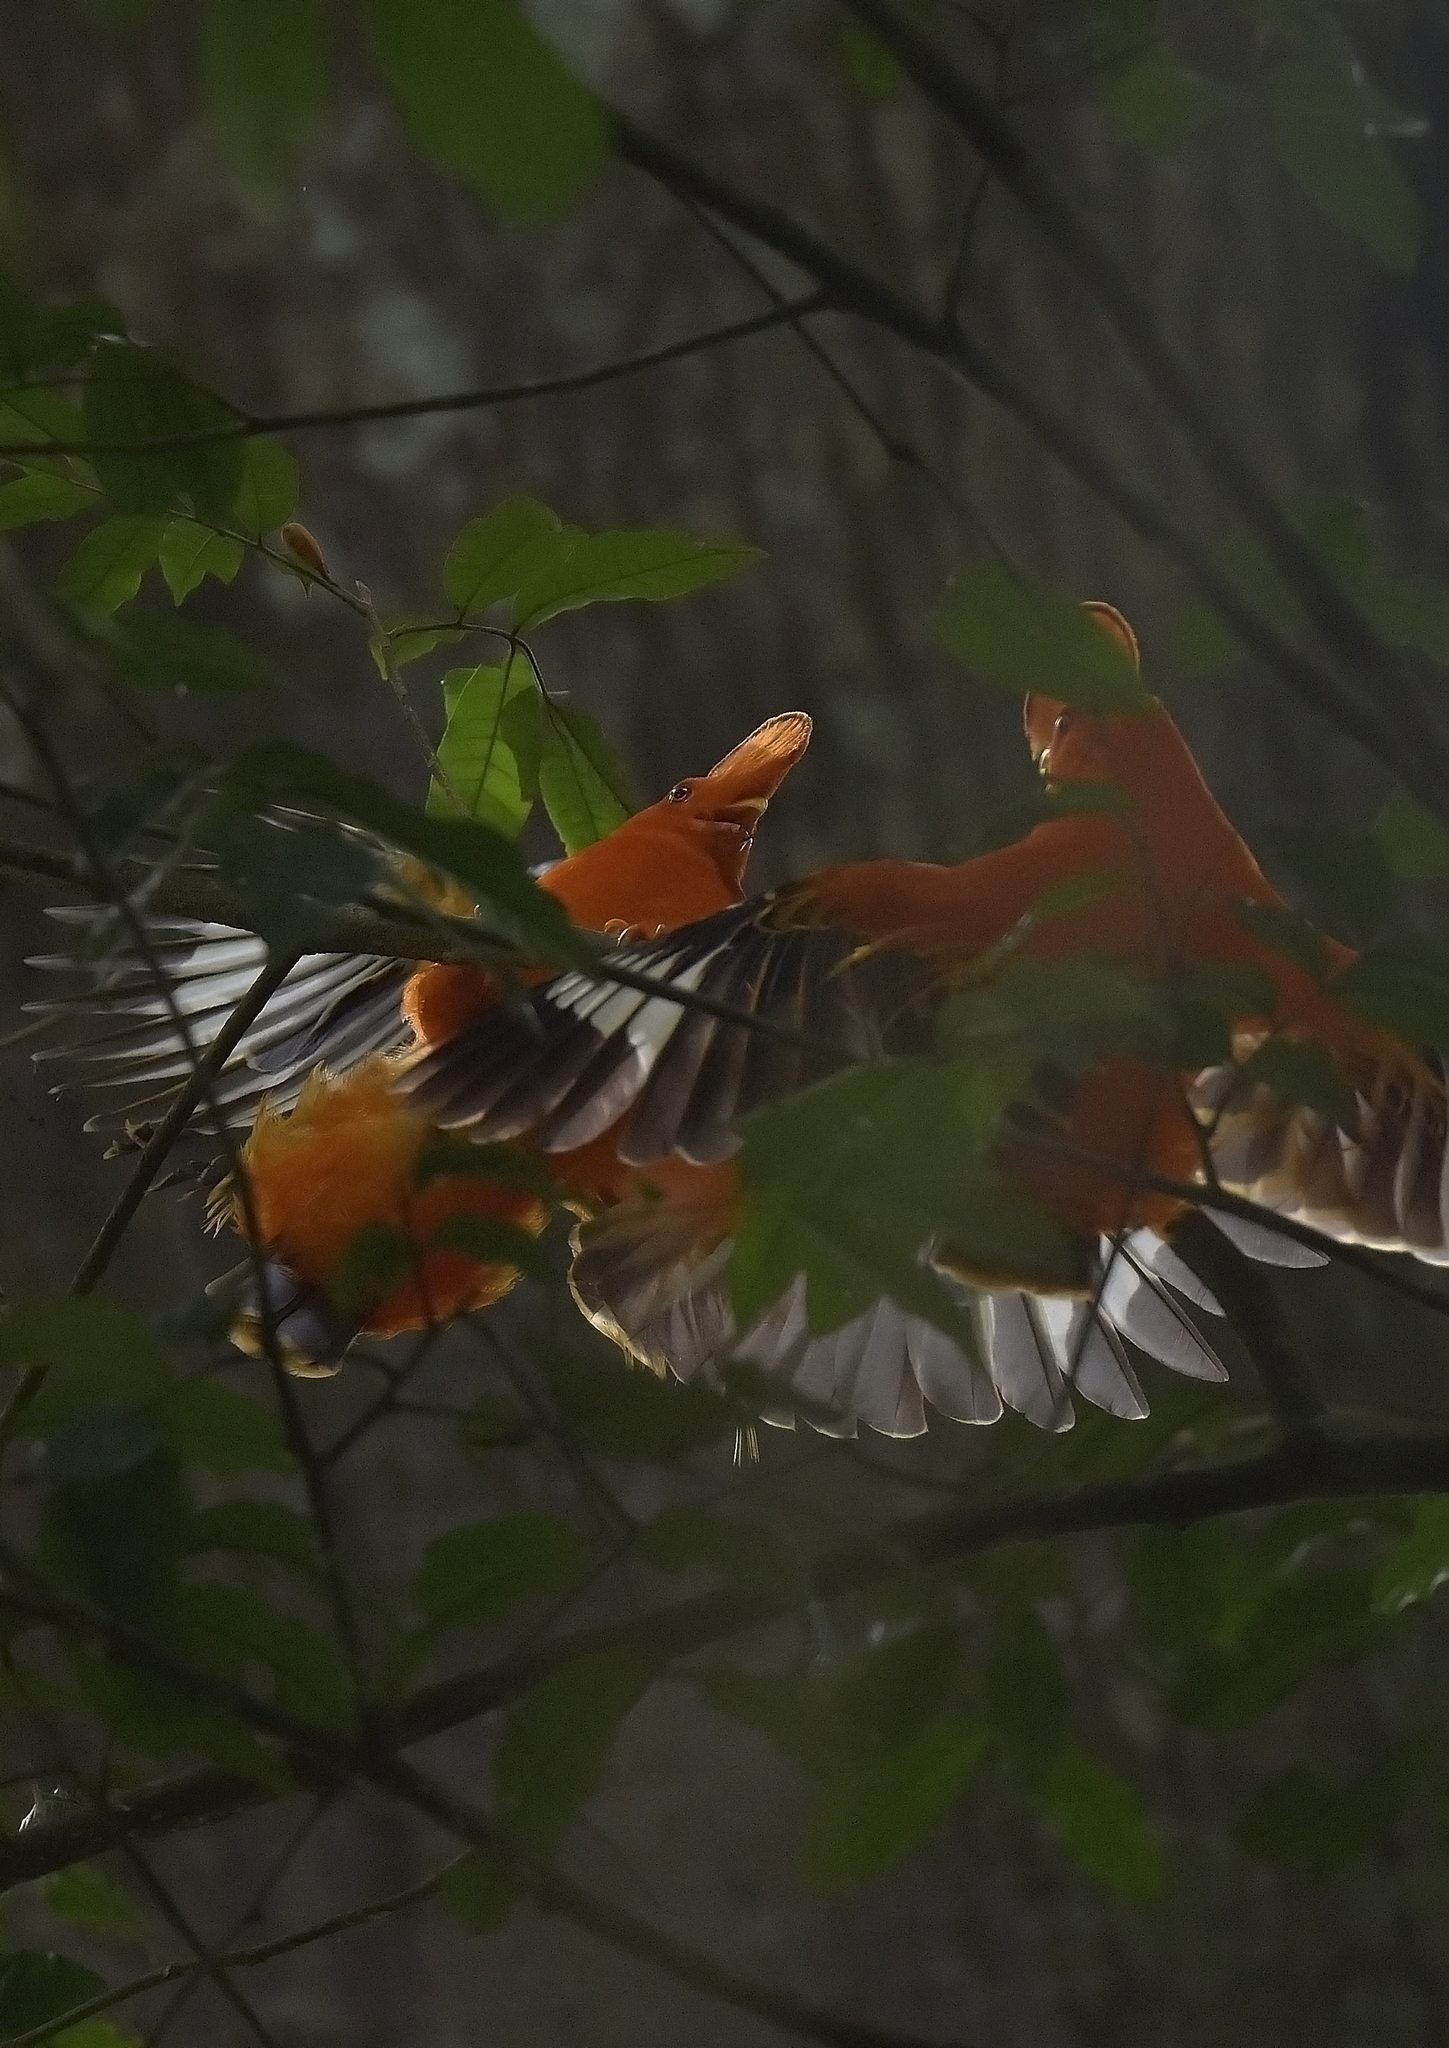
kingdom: Animalia
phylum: Chordata
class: Aves
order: Passeriformes
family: Cotingidae
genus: Rupicola
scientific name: Rupicola rupicola
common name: Guianan cock-of-the-rock
